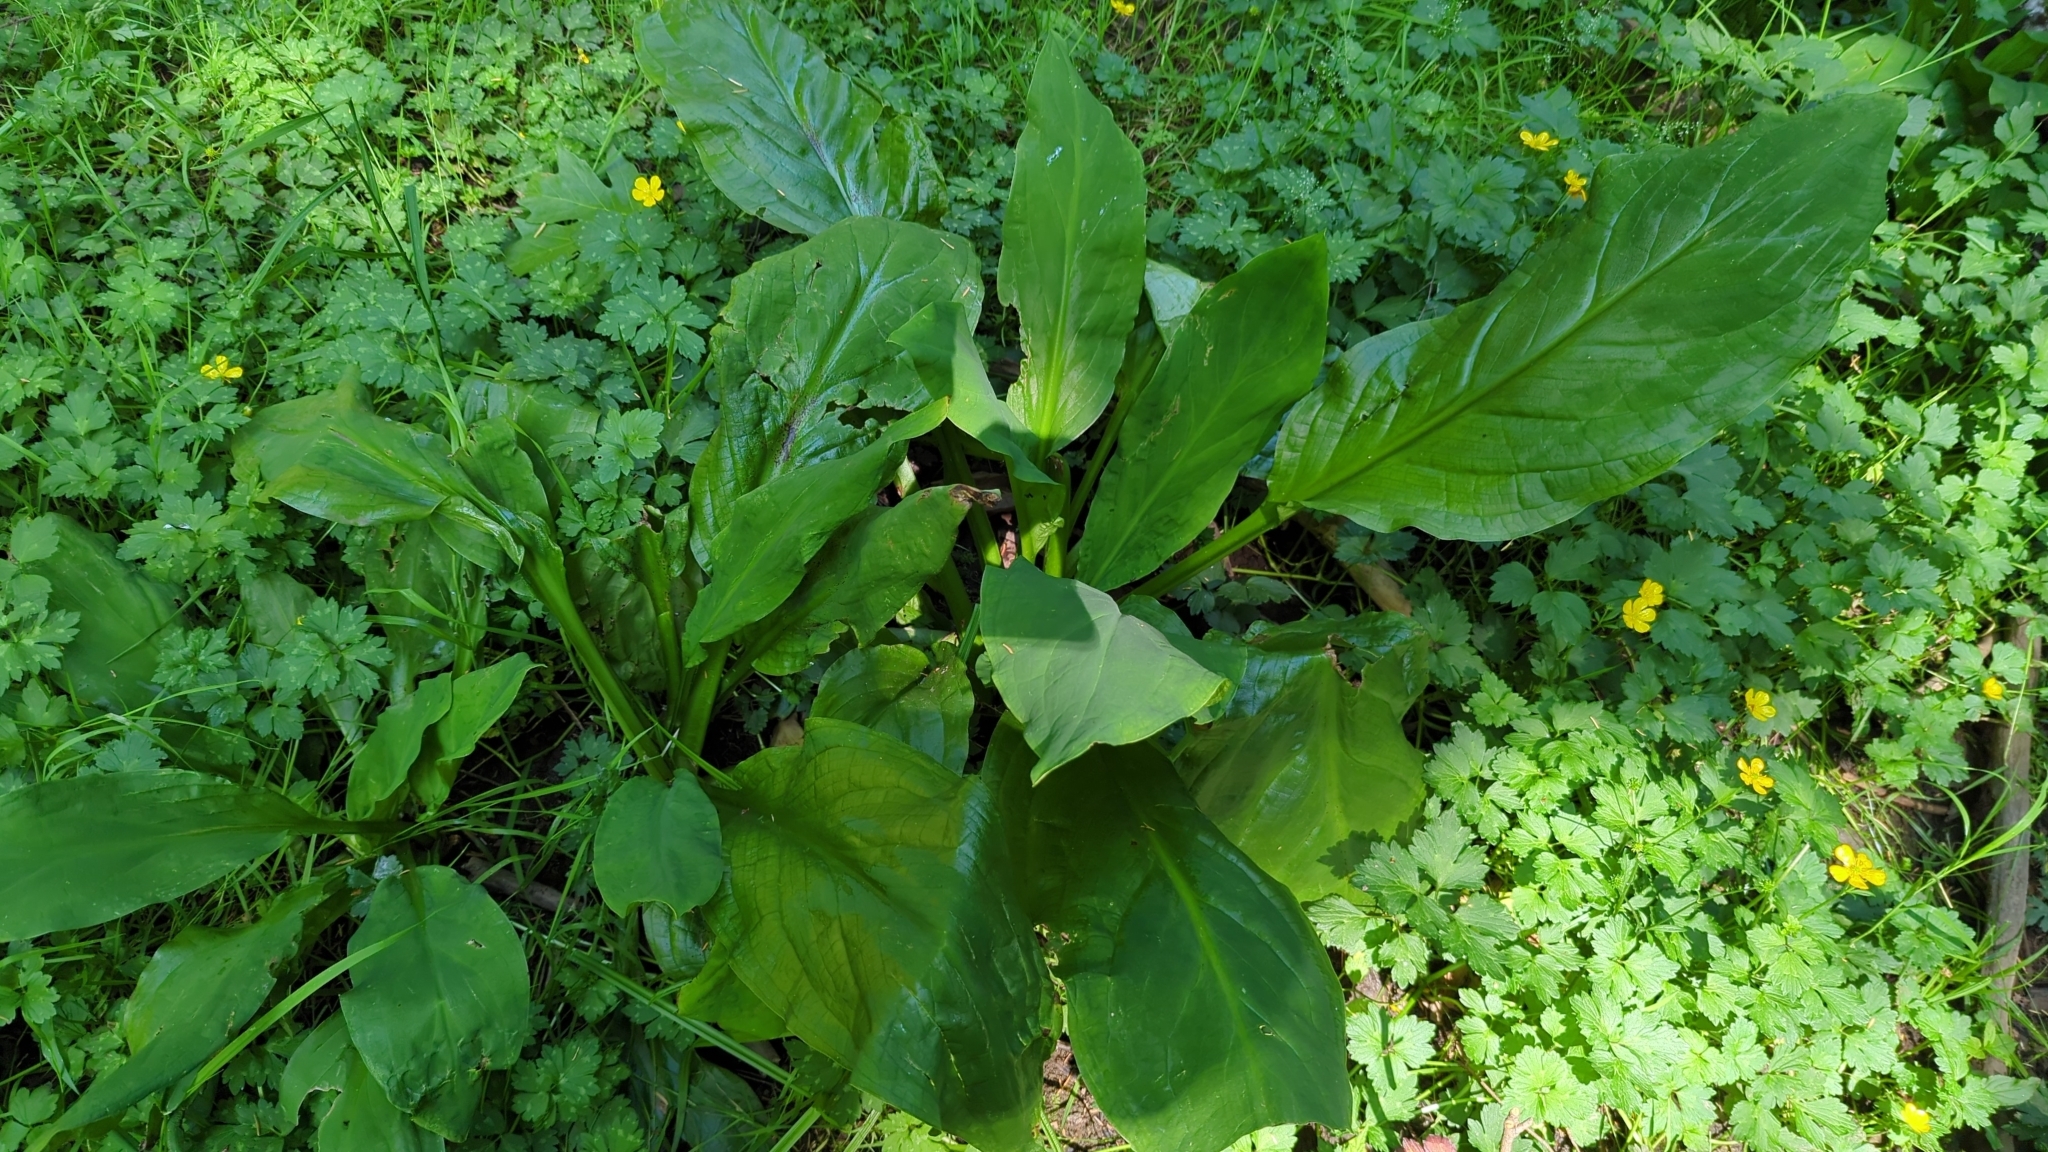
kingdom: Plantae
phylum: Tracheophyta
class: Liliopsida
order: Alismatales
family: Araceae
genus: Lysichiton
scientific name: Lysichiton americanus
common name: American skunk cabbage
